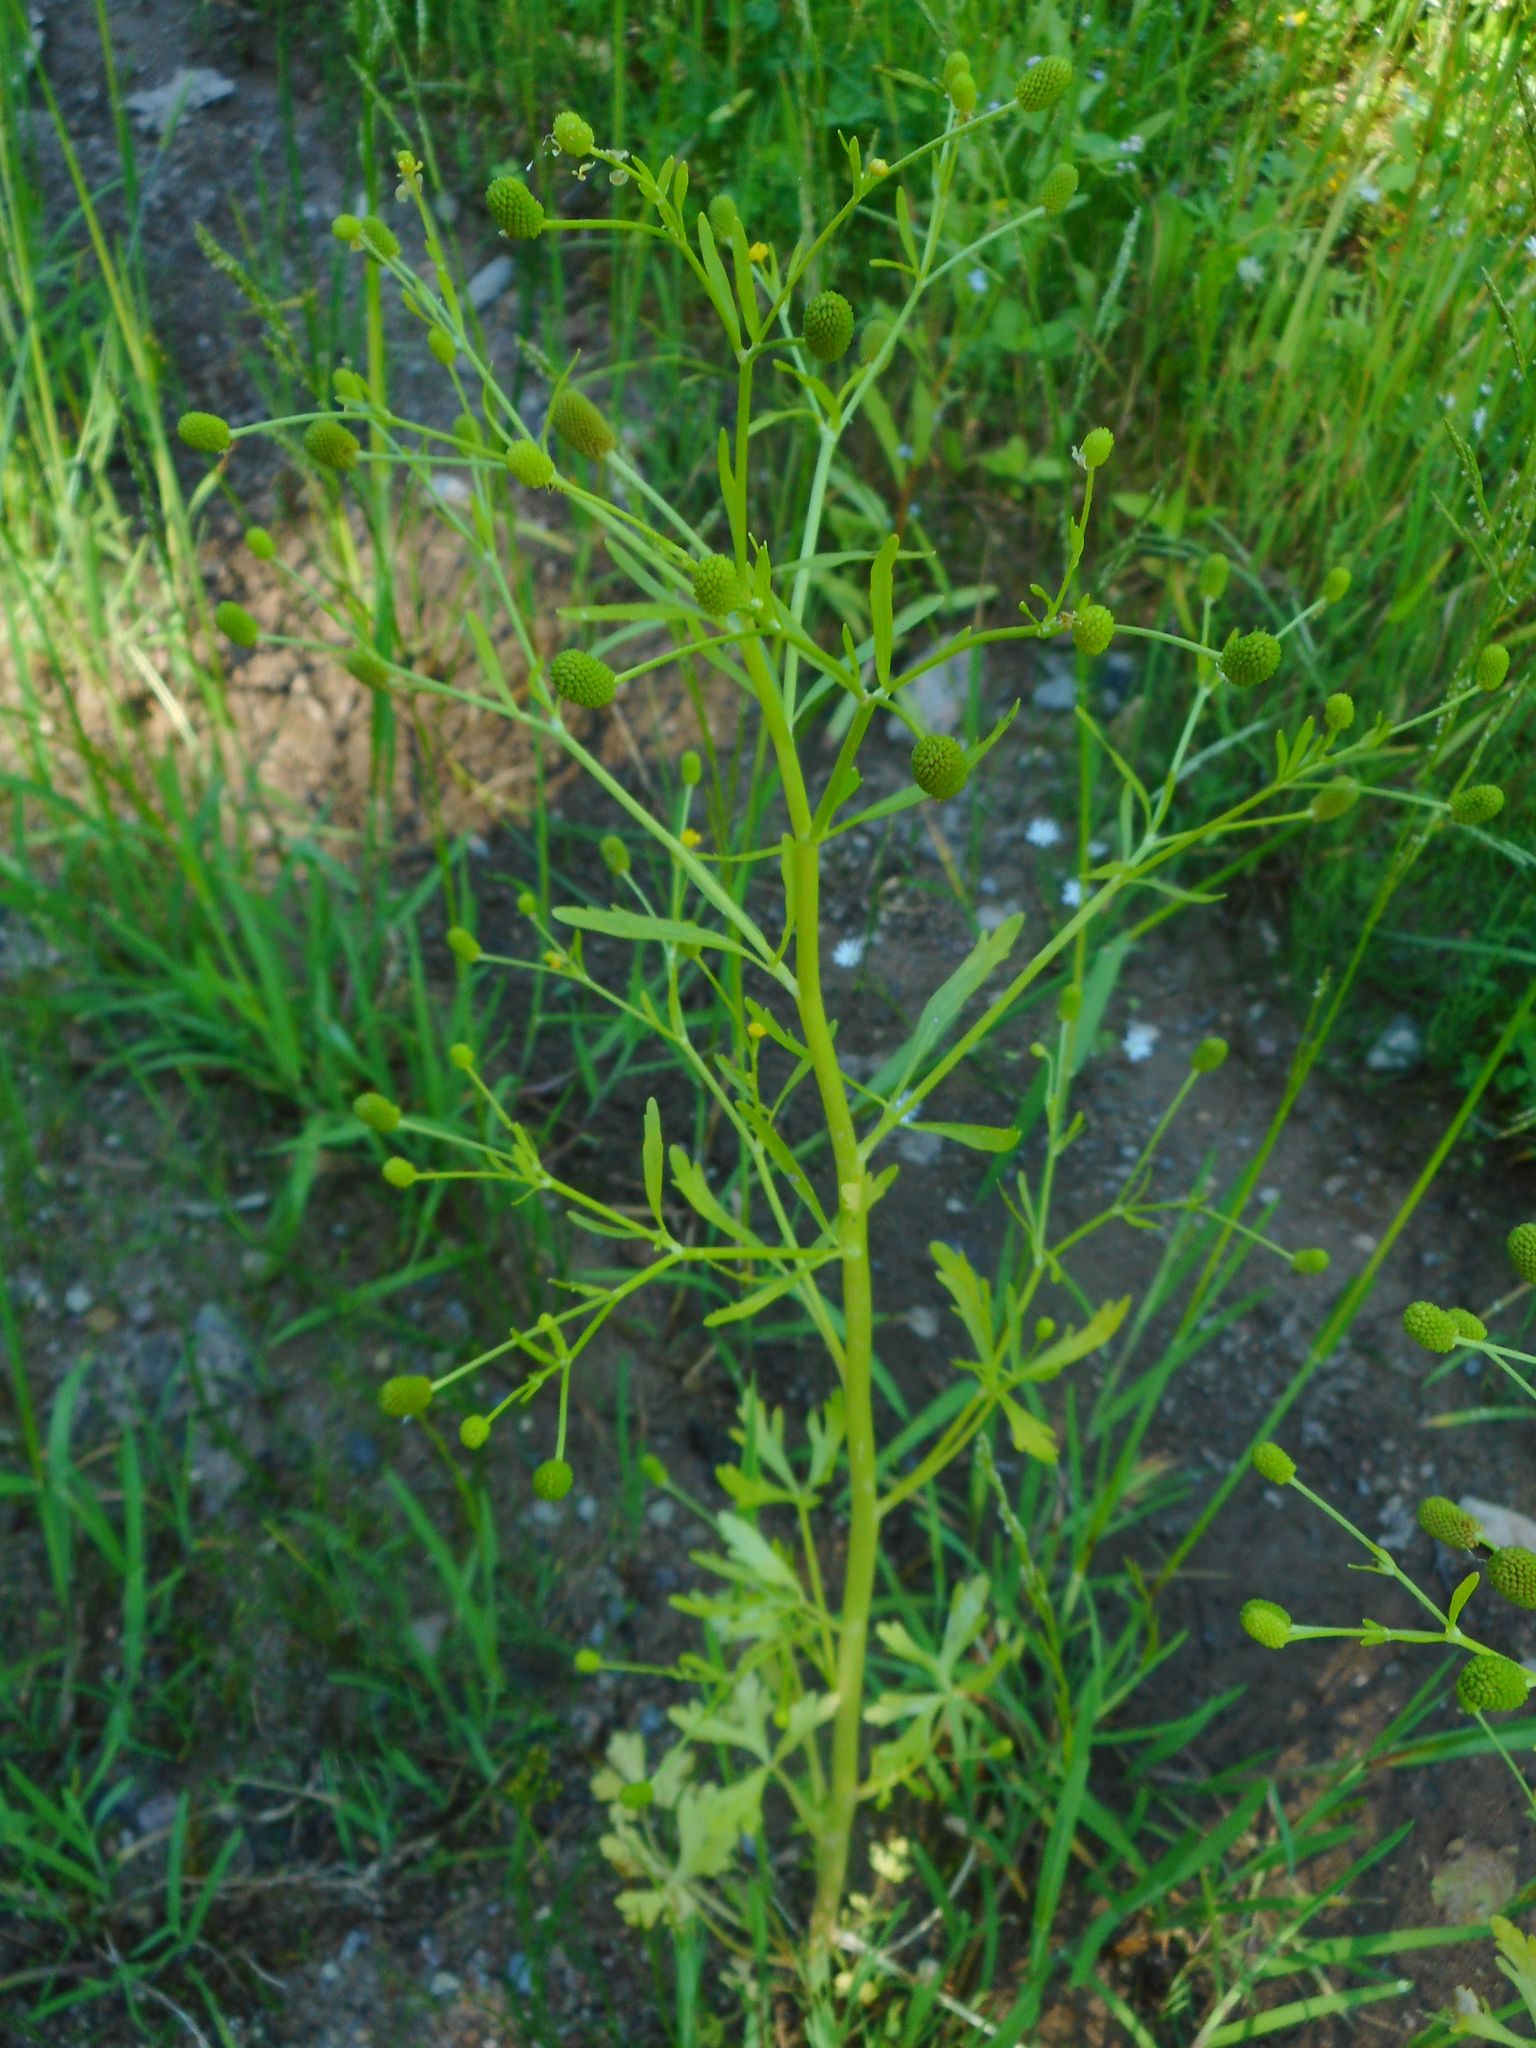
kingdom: Plantae
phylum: Tracheophyta
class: Magnoliopsida
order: Ranunculales
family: Ranunculaceae
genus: Ranunculus
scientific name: Ranunculus sceleratus
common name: Celery-leaved buttercup
